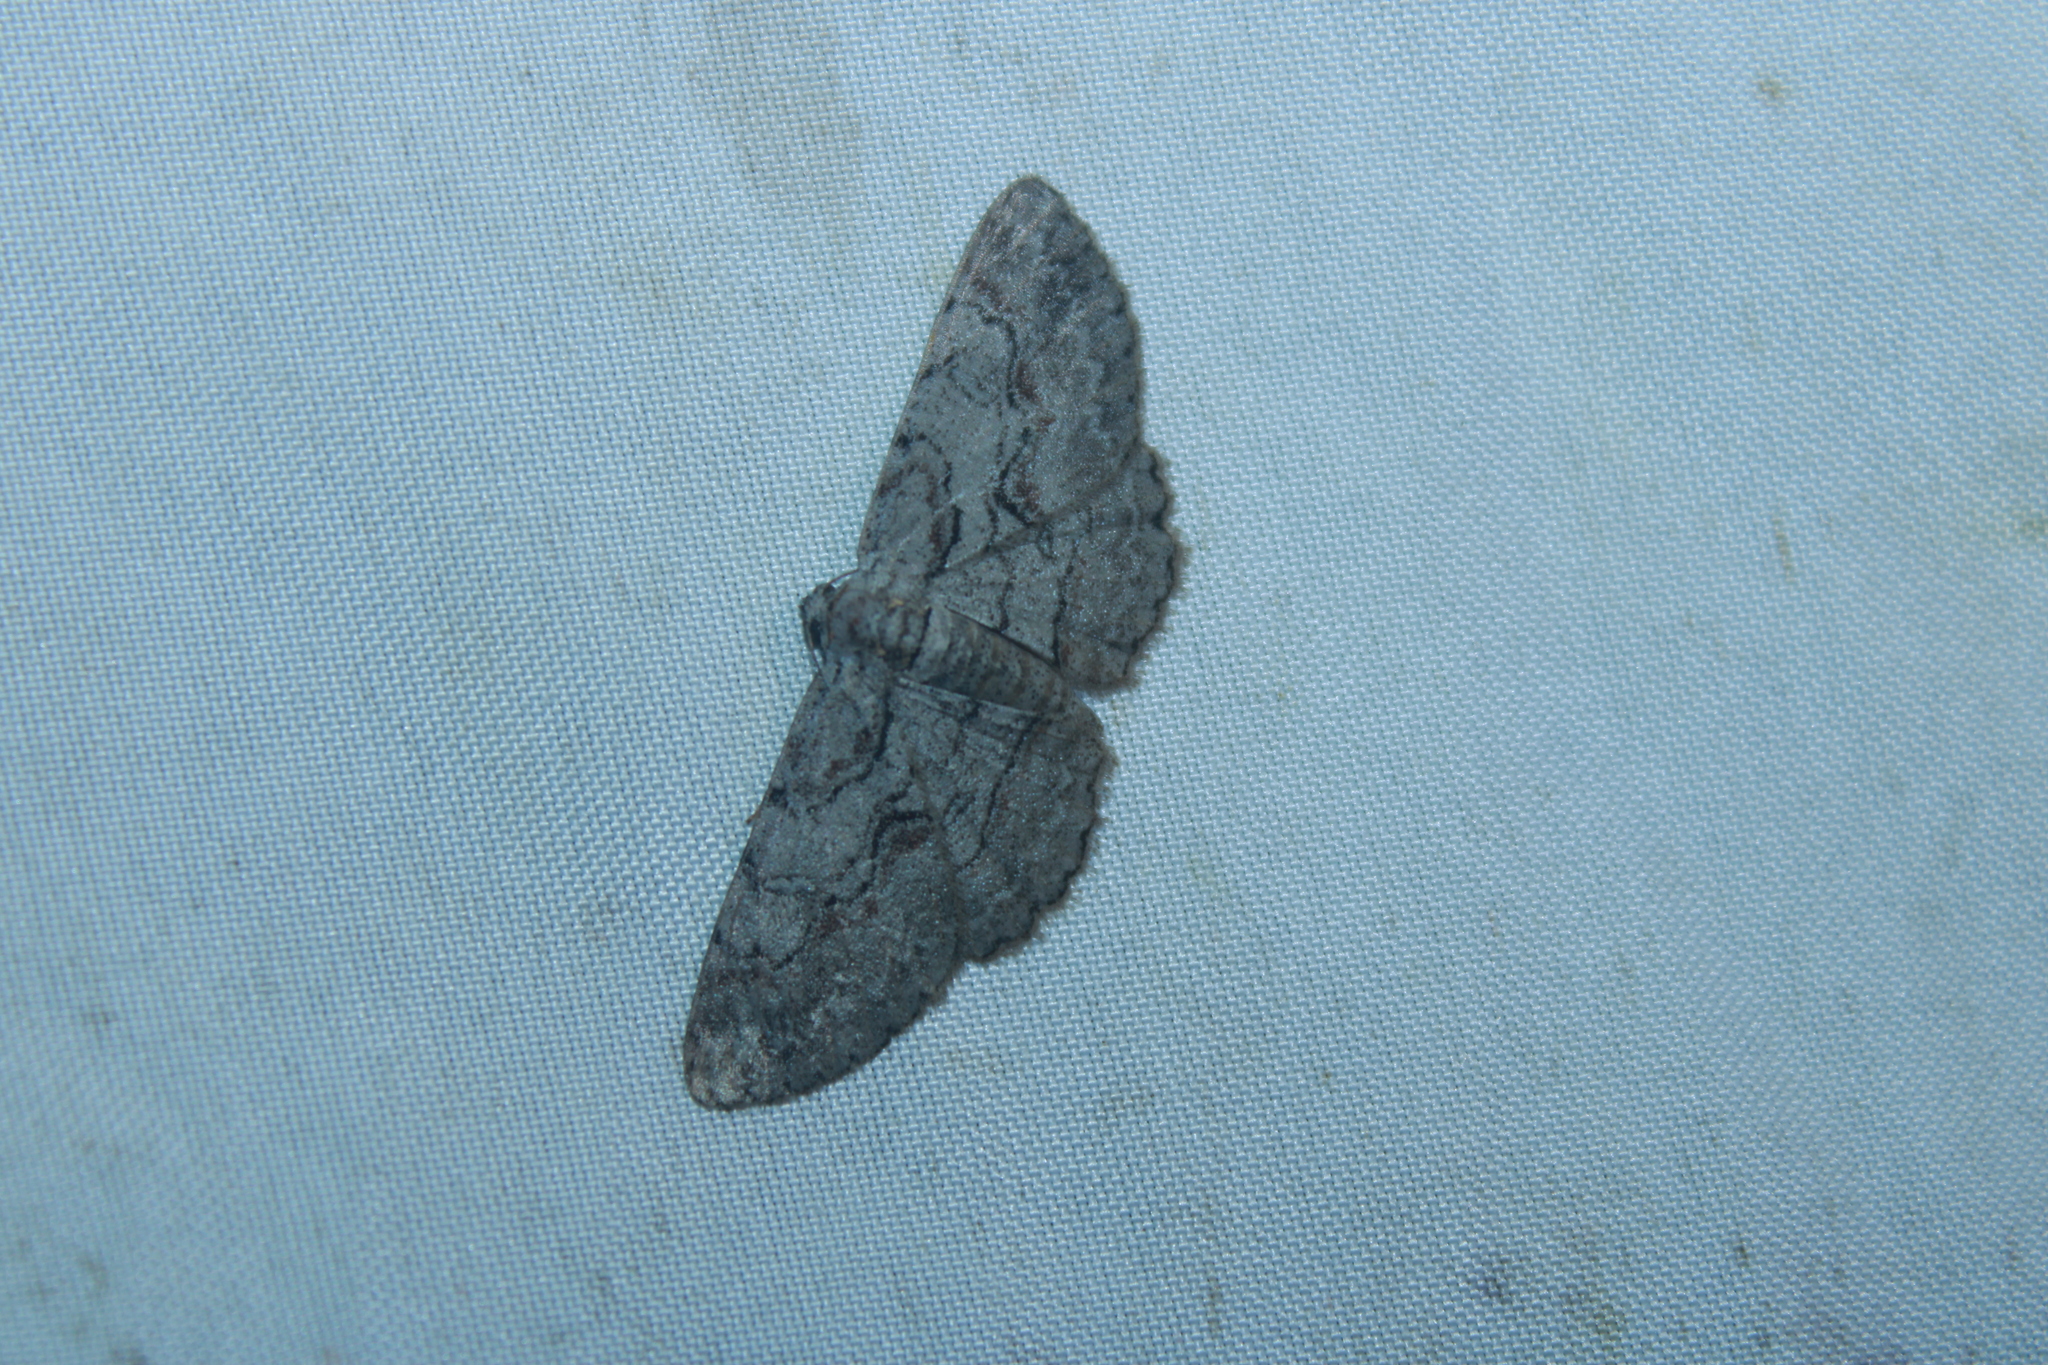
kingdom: Animalia
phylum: Arthropoda
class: Insecta
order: Lepidoptera
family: Geometridae
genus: Iridopsis
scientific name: Iridopsis vellivolata
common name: Large purplish gray
